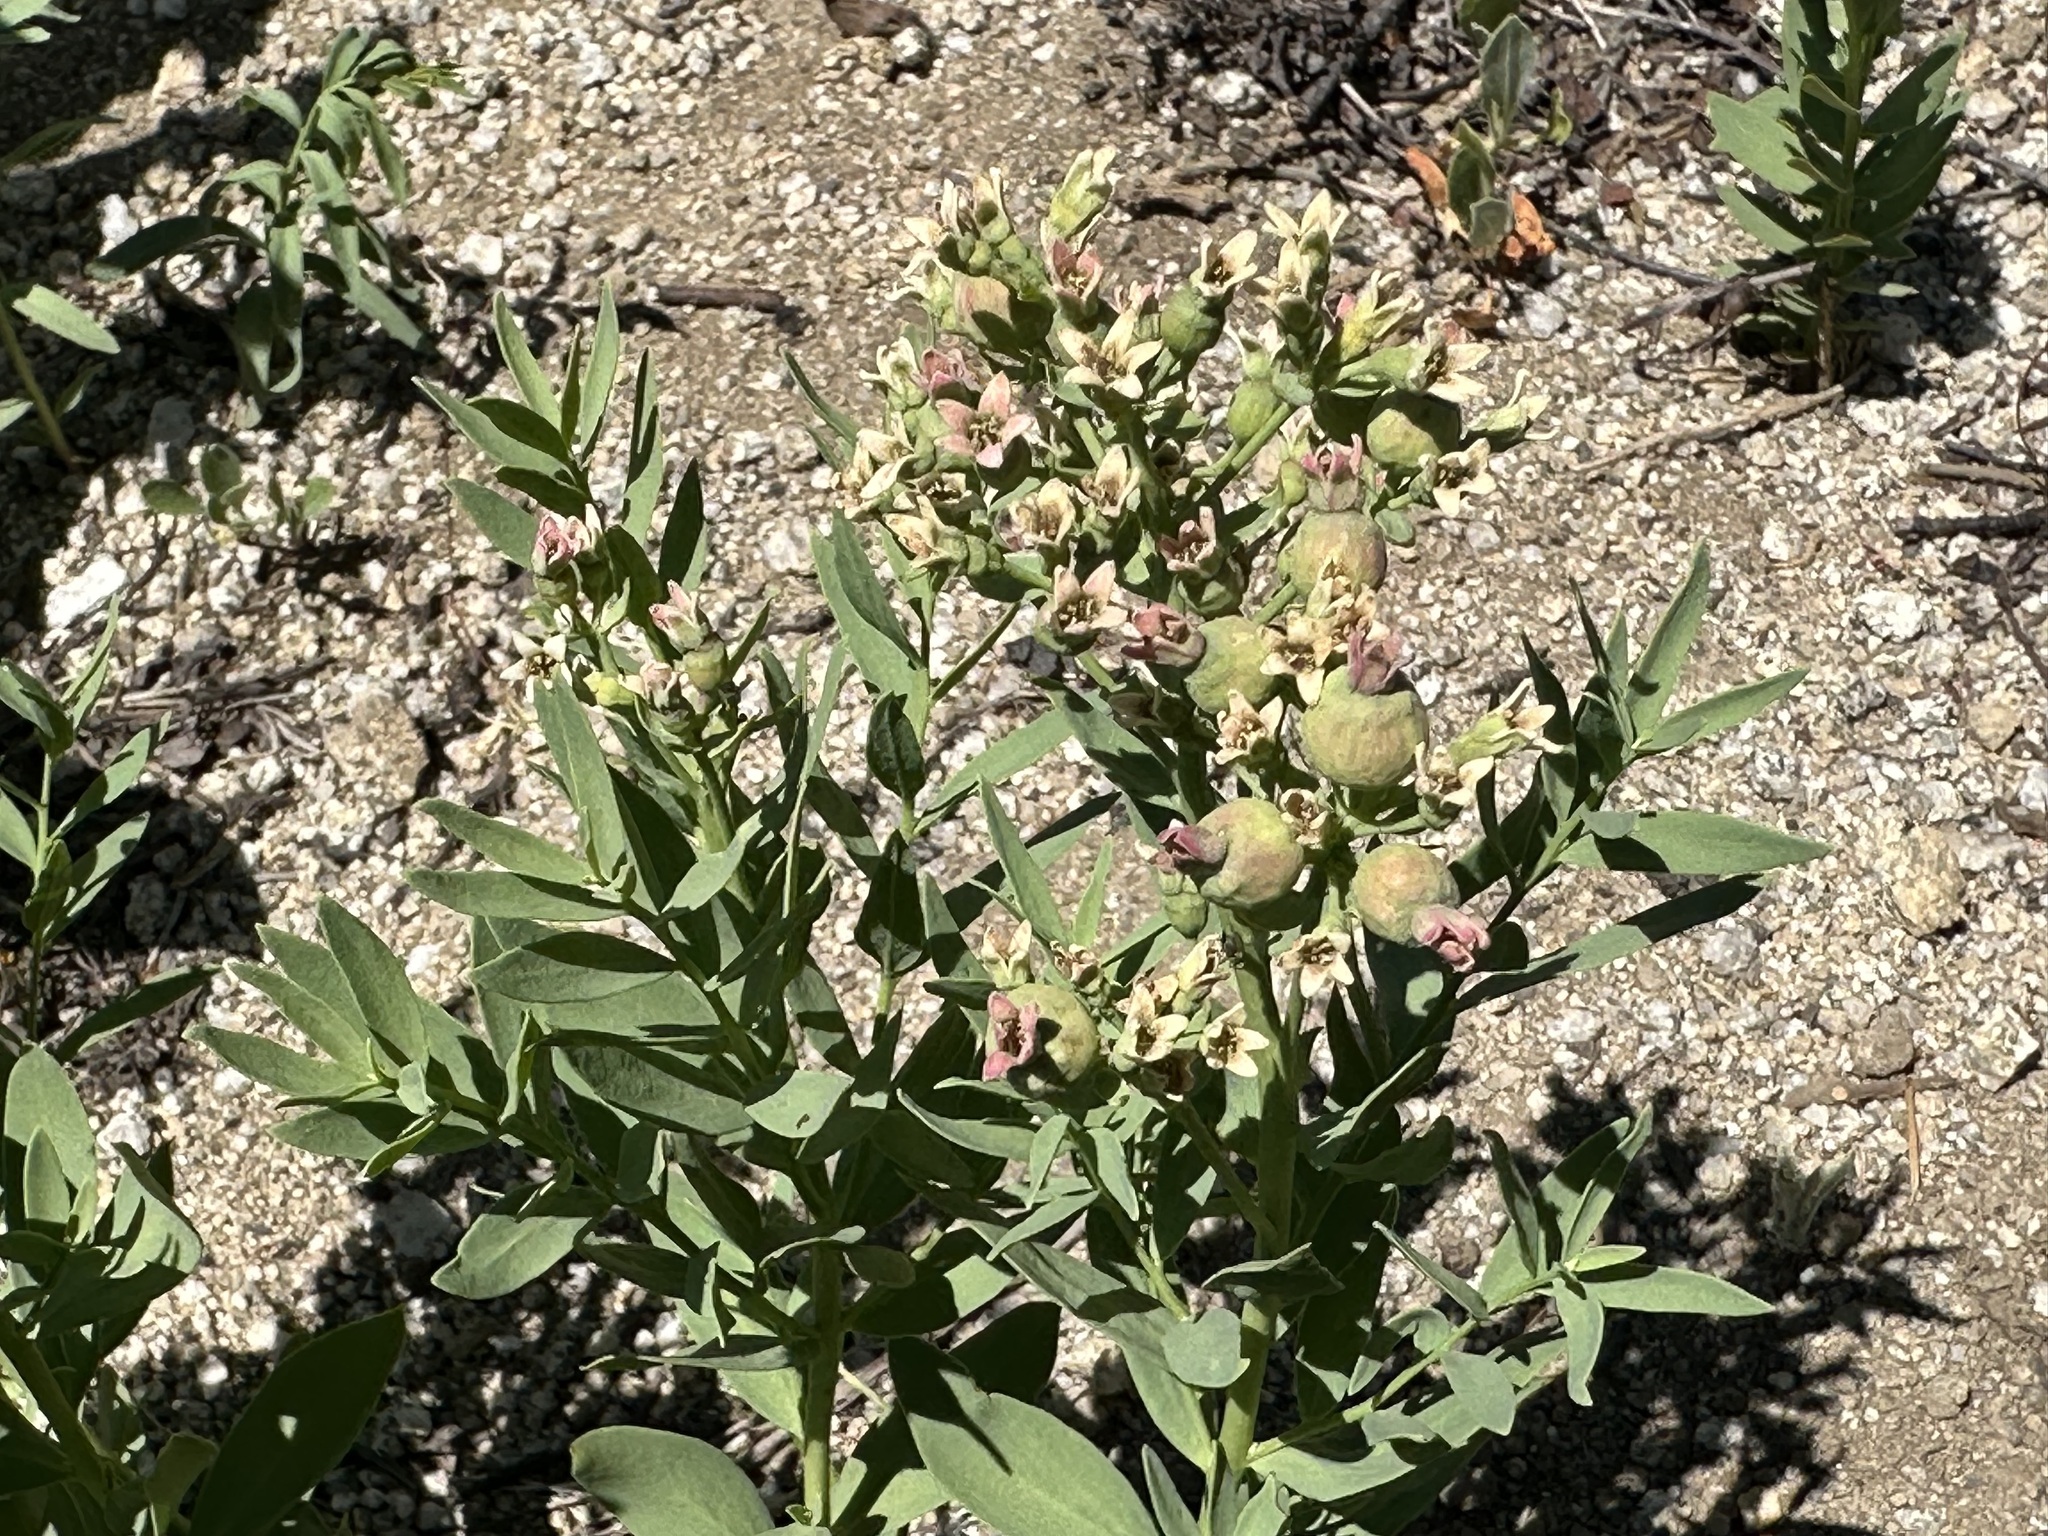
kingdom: Plantae
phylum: Tracheophyta
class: Magnoliopsida
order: Santalales
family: Comandraceae
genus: Comandra
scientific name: Comandra umbellata
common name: Bastard toadflax
